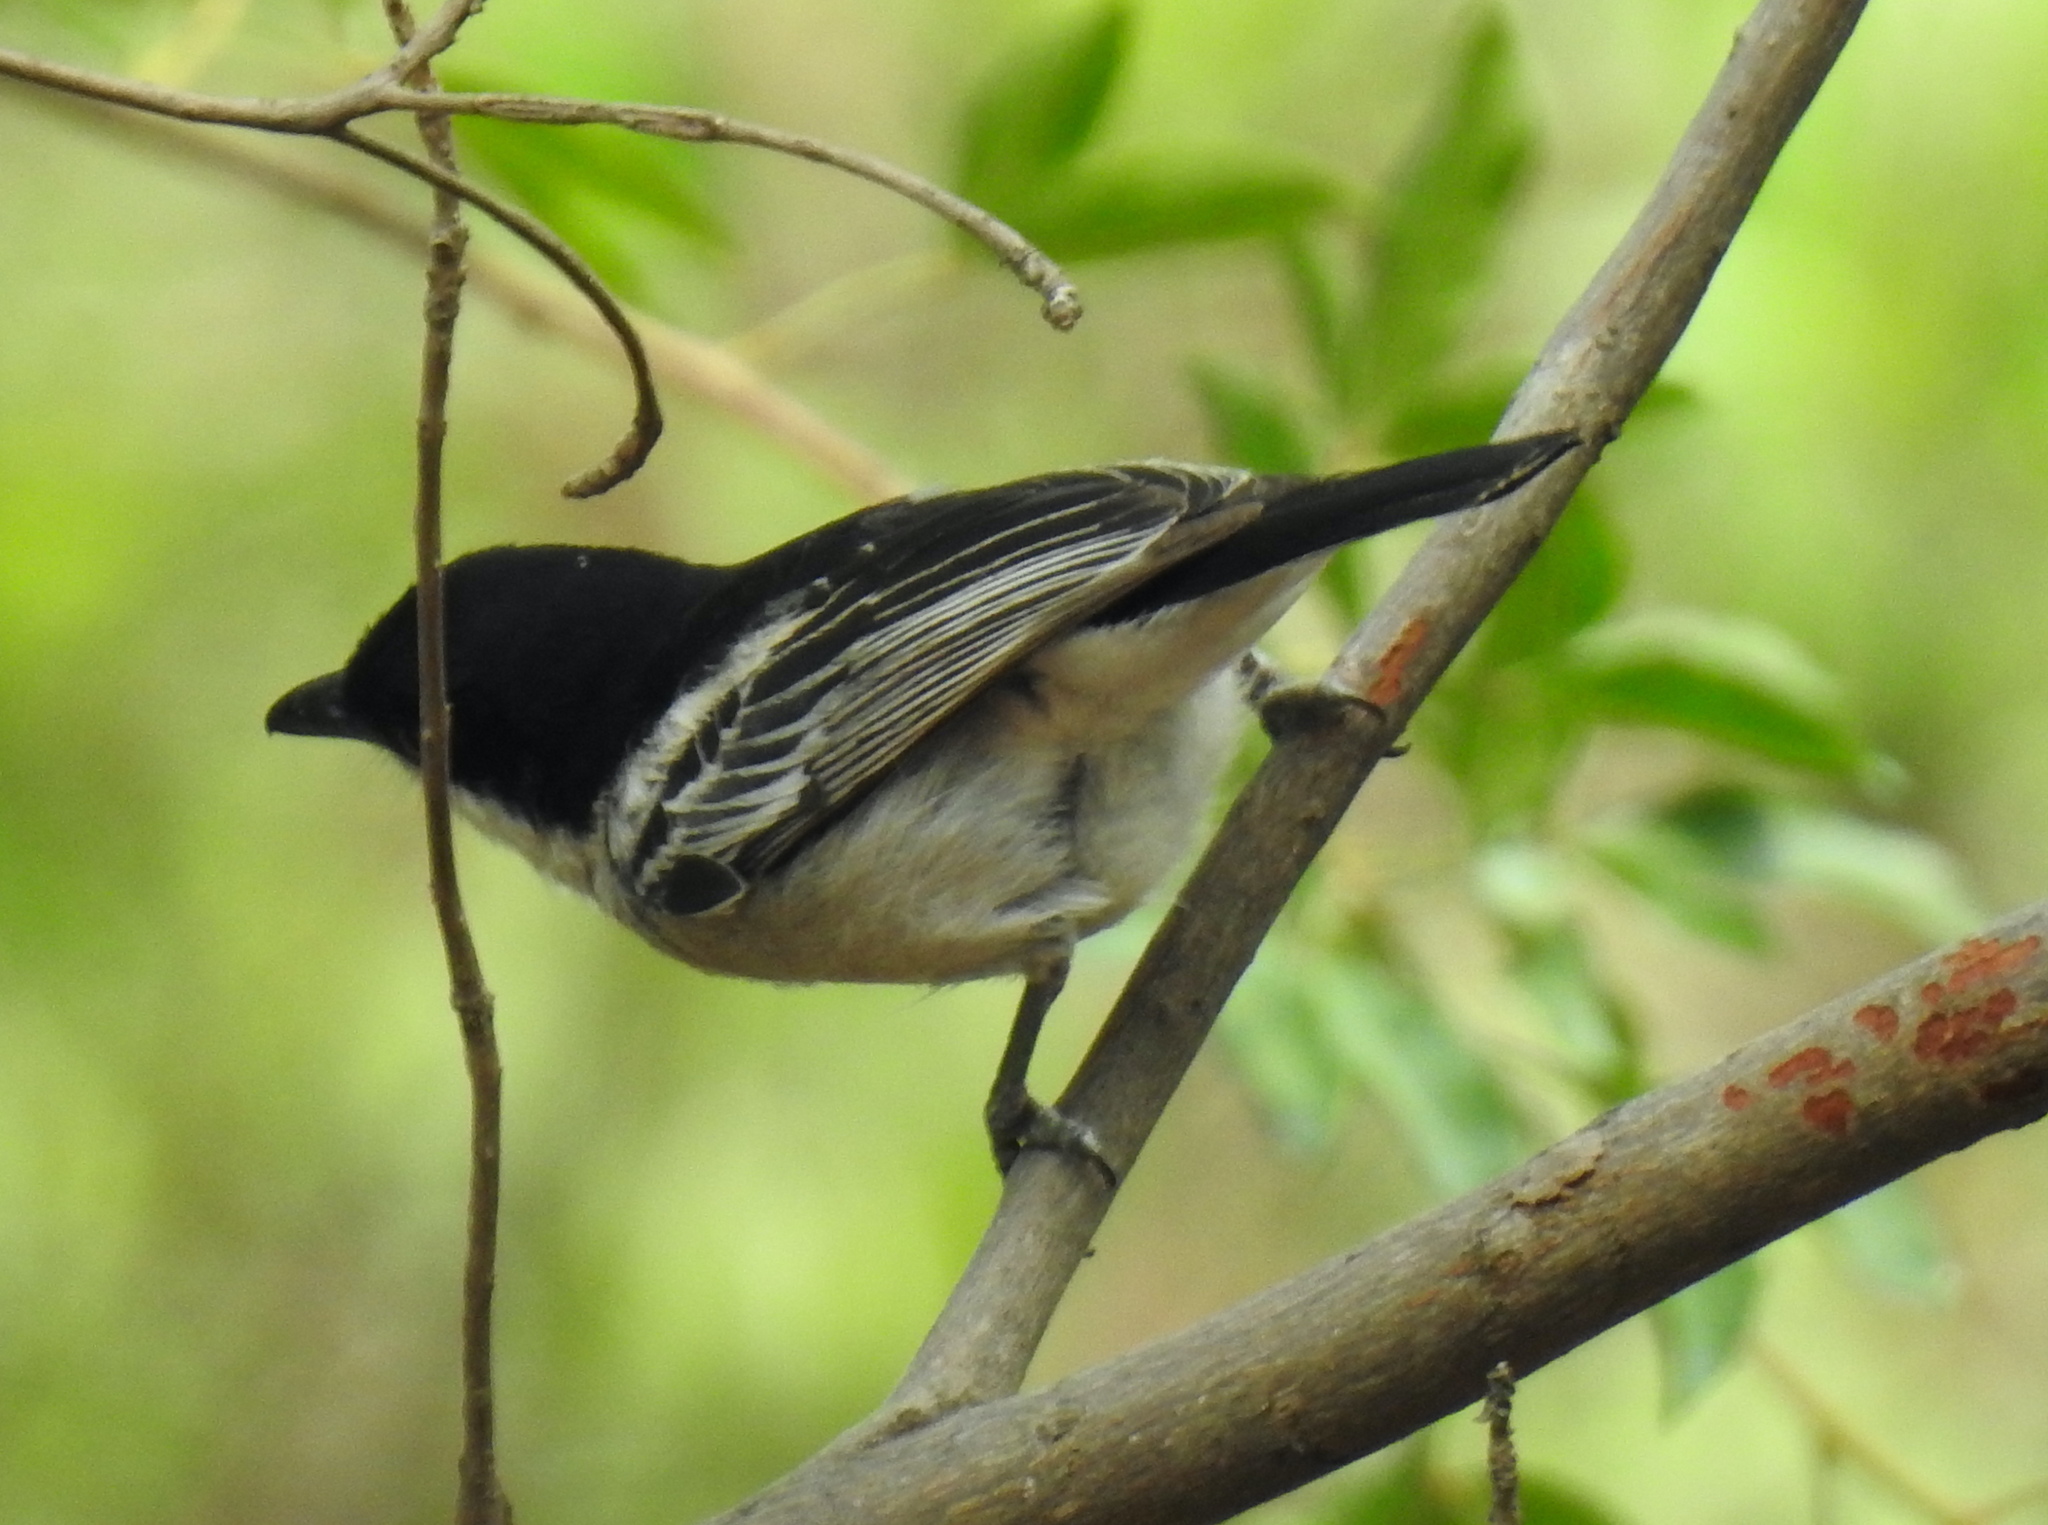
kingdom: Animalia
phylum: Chordata
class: Aves
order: Passeriformes
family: Malaconotidae
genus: Dryoscopus
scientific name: Dryoscopus cubla
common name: Black-backed puffback
